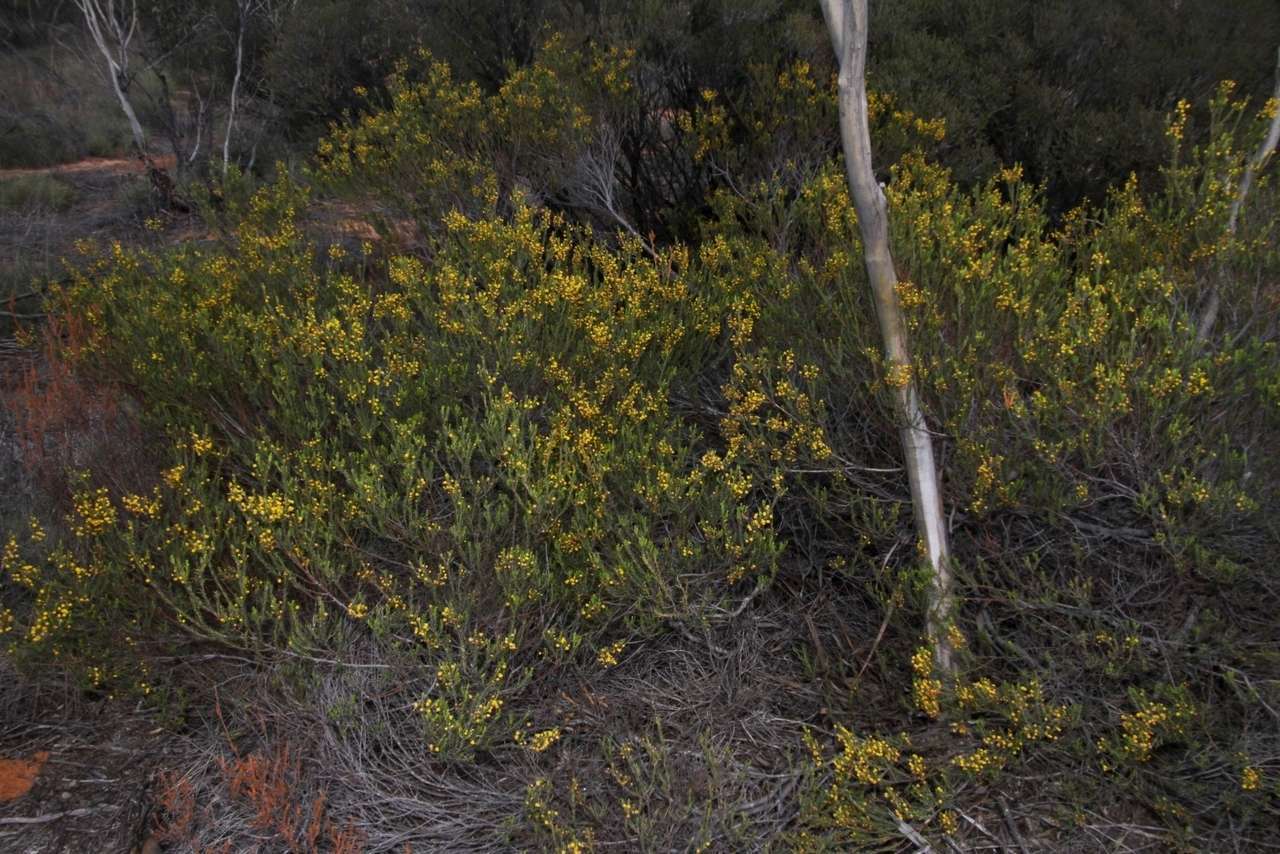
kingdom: Plantae
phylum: Tracheophyta
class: Magnoliopsida
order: Fabales
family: Fabaceae
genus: Acacia
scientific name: Acacia lineata
